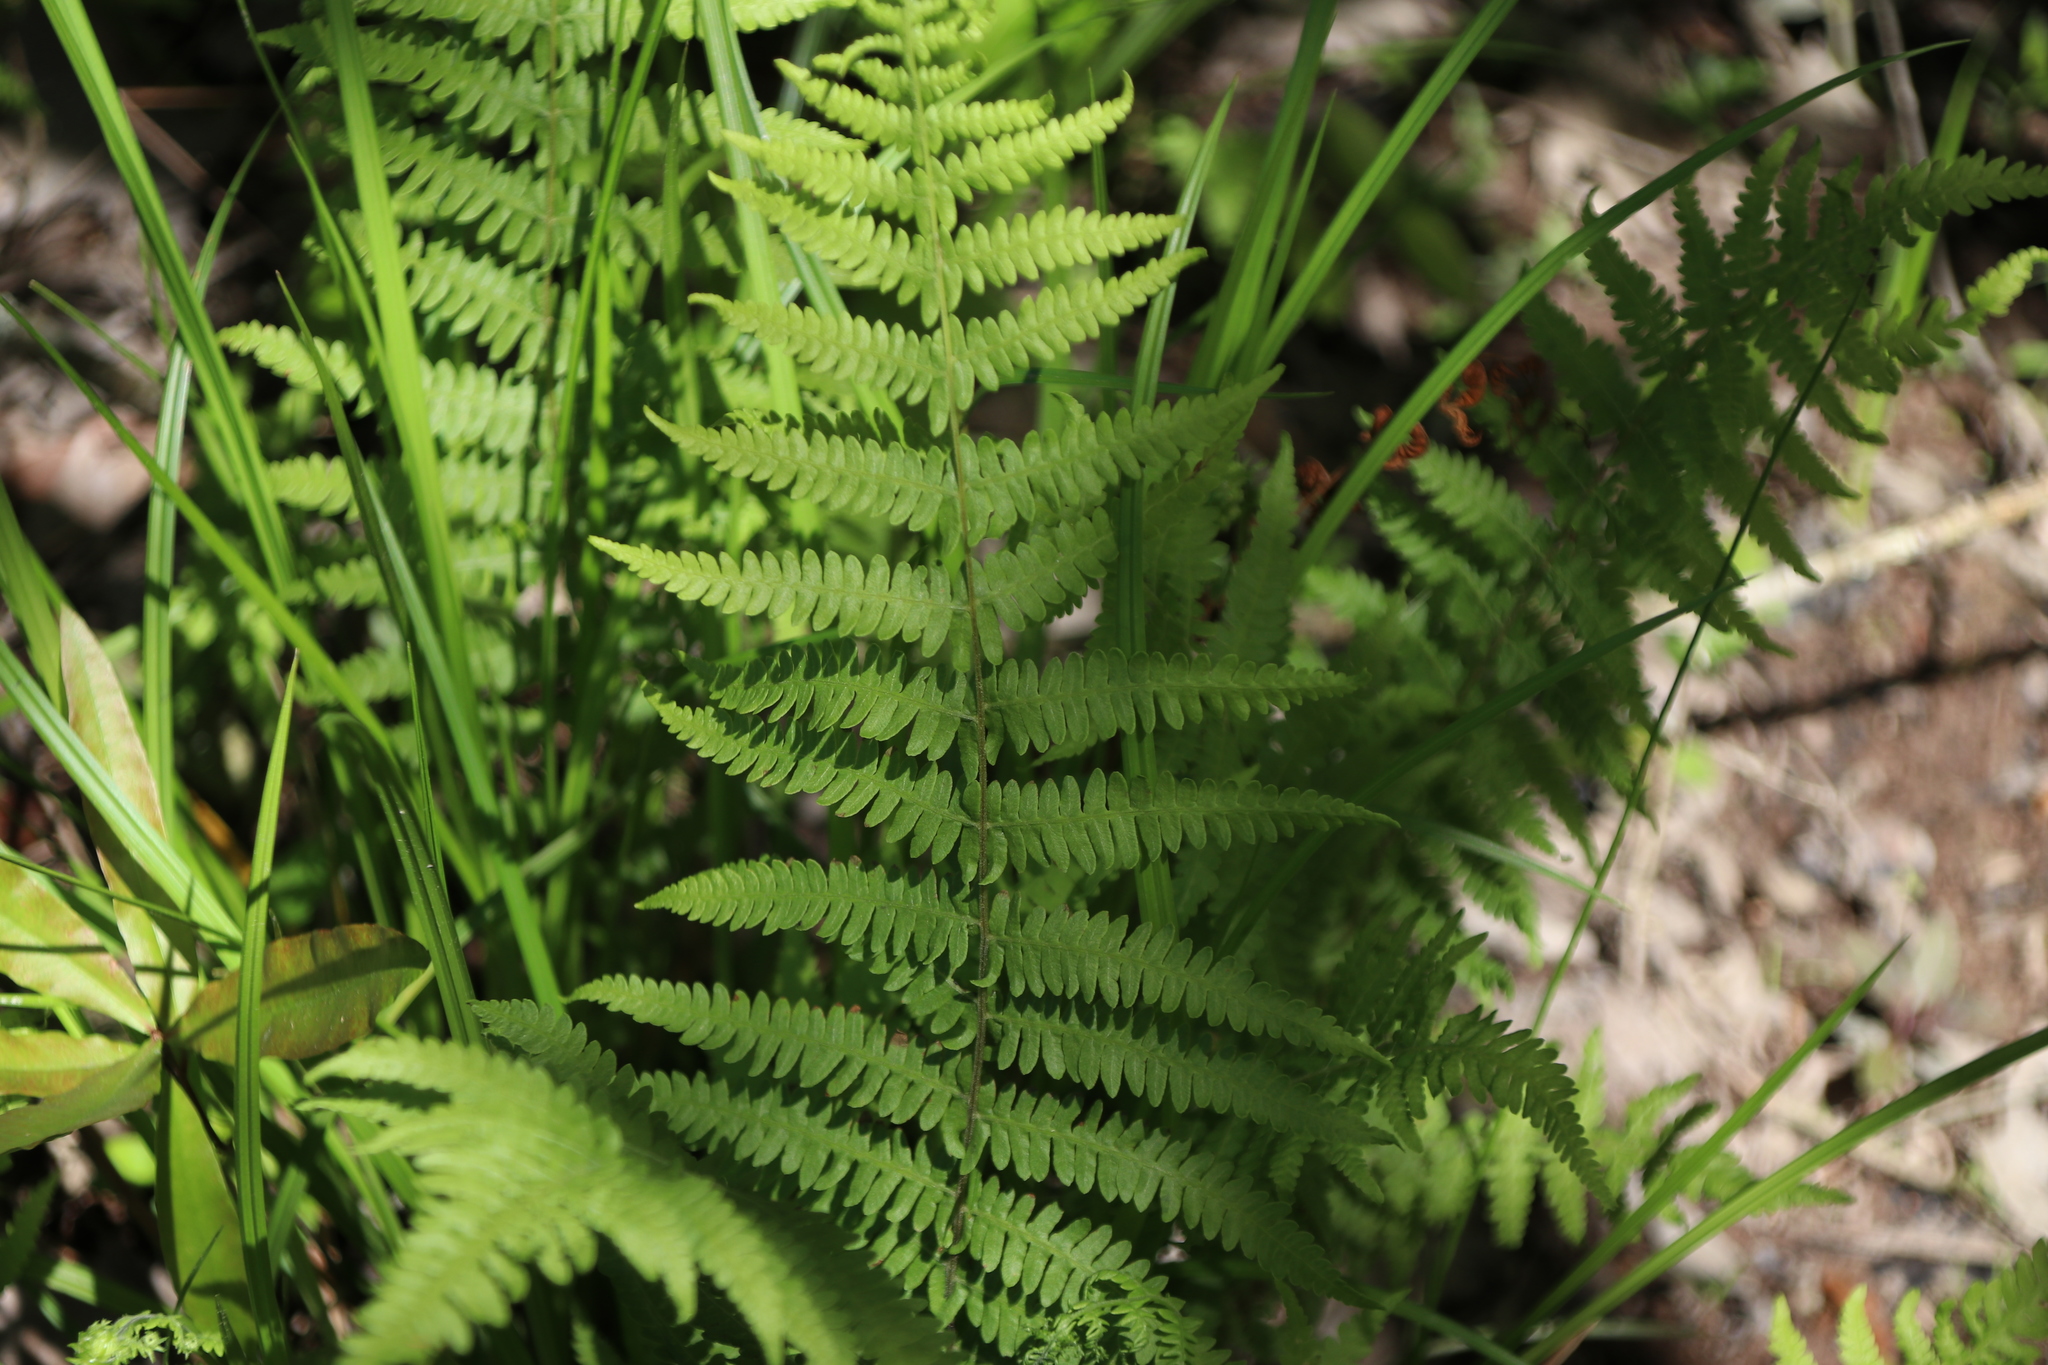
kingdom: Plantae
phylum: Tracheophyta
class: Polypodiopsida
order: Polypodiales
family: Thelypteridaceae
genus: Pelazoneuron
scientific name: Pelazoneuron kunthii
